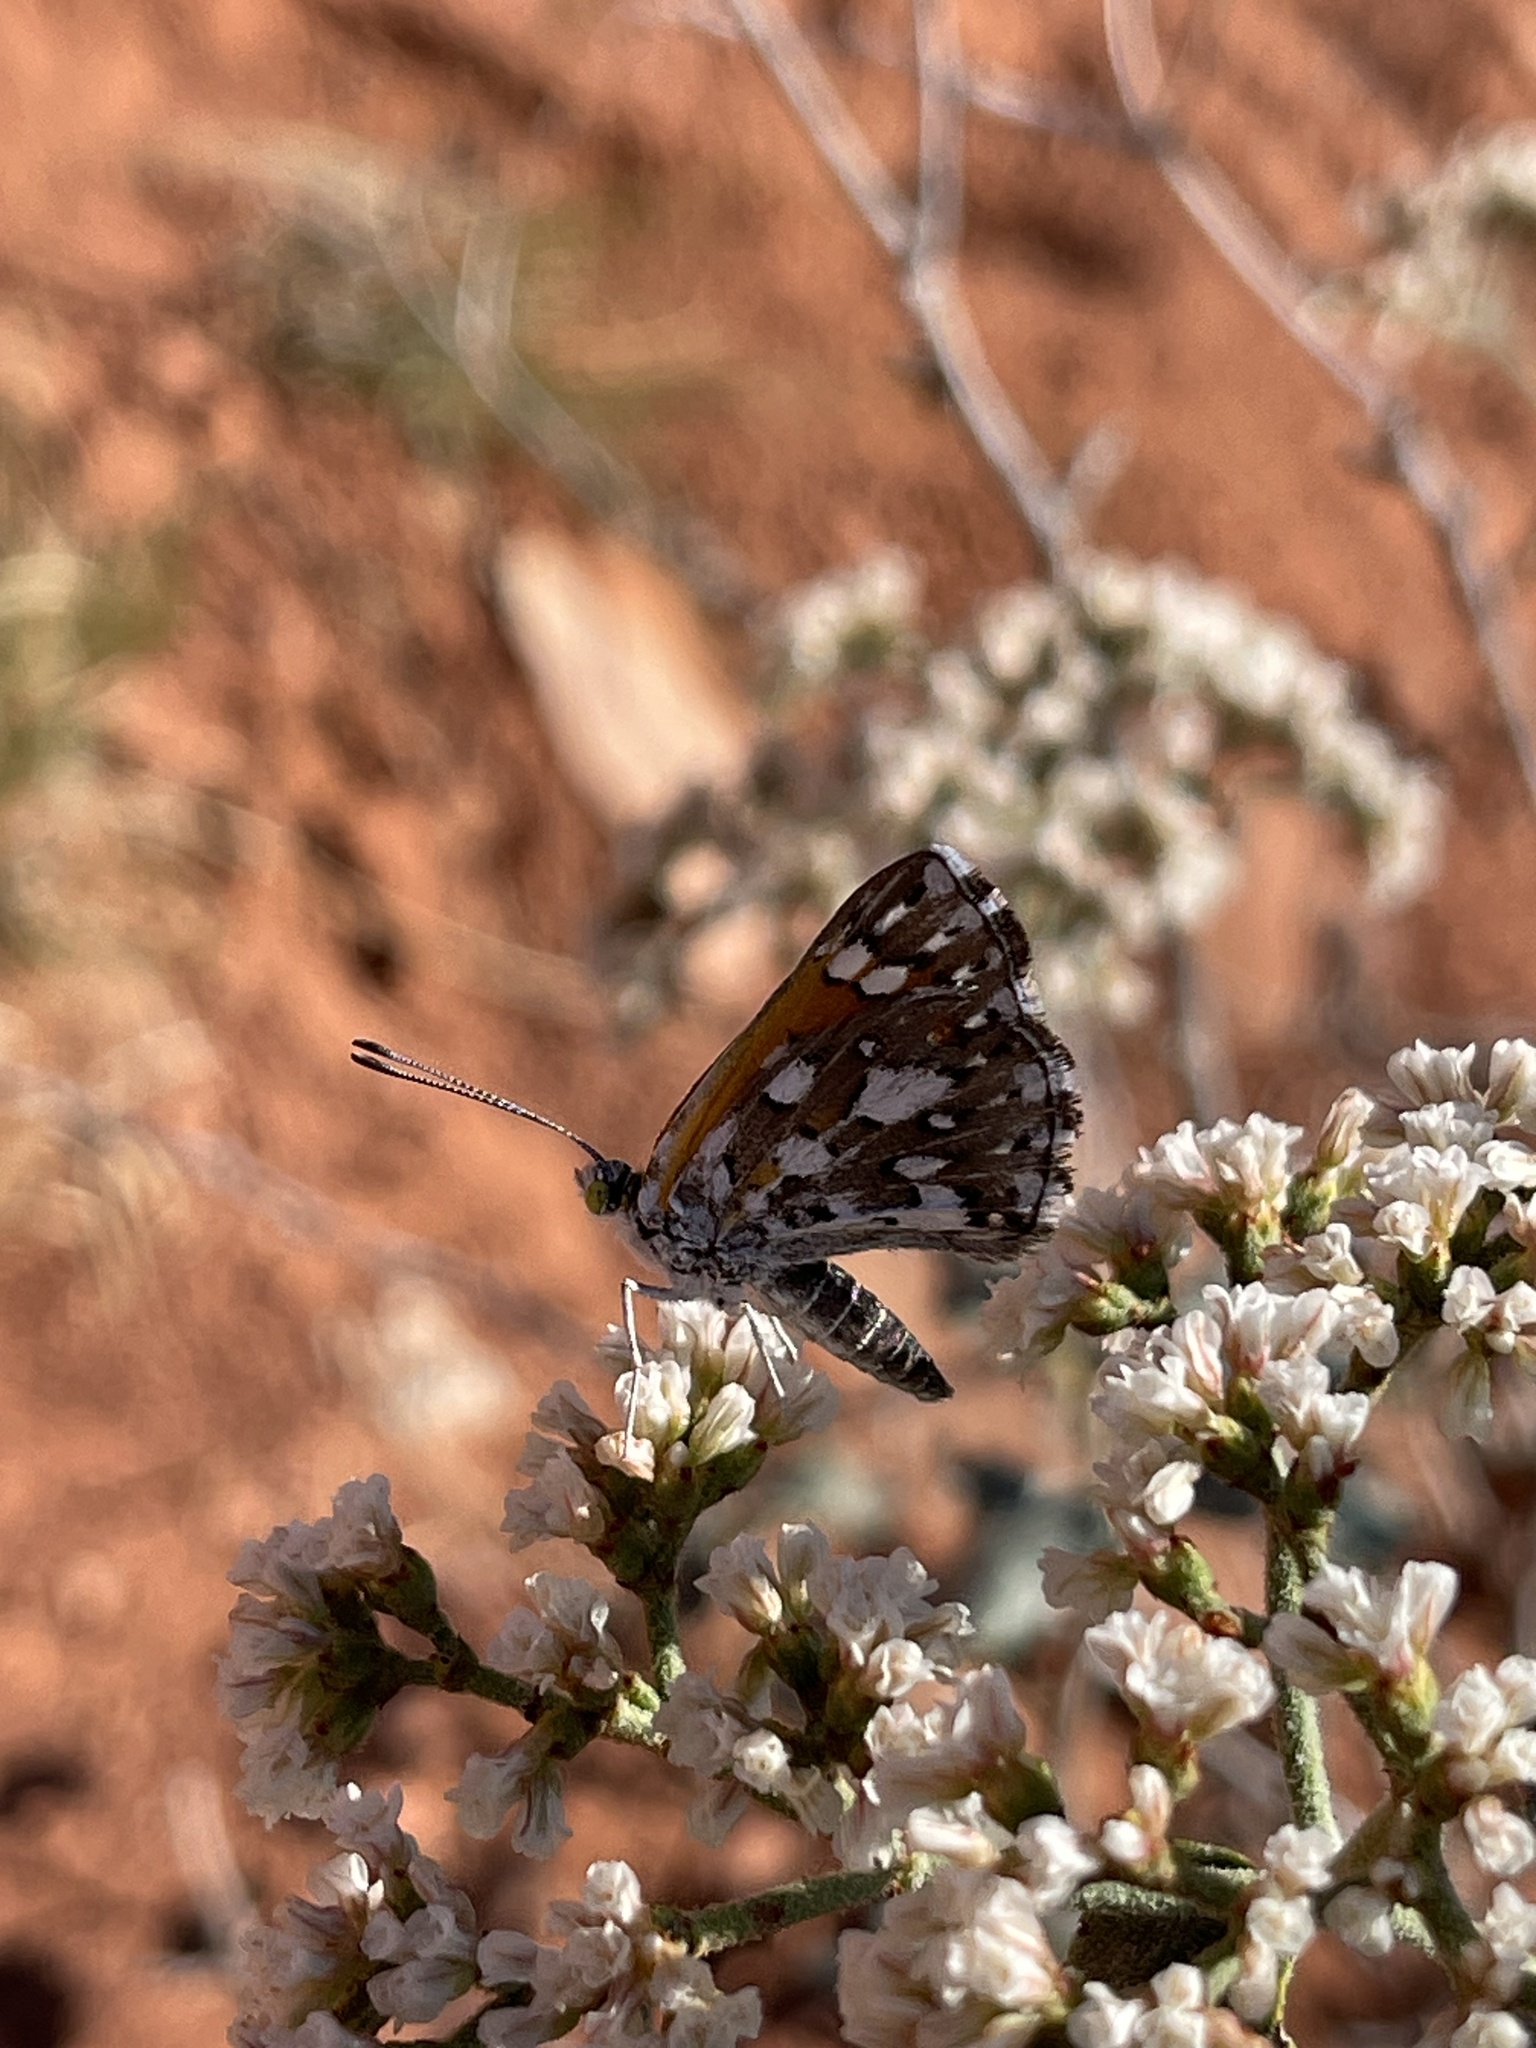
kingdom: Animalia
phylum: Arthropoda
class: Insecta
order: Lepidoptera
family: Riodinidae
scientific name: Riodinidae
